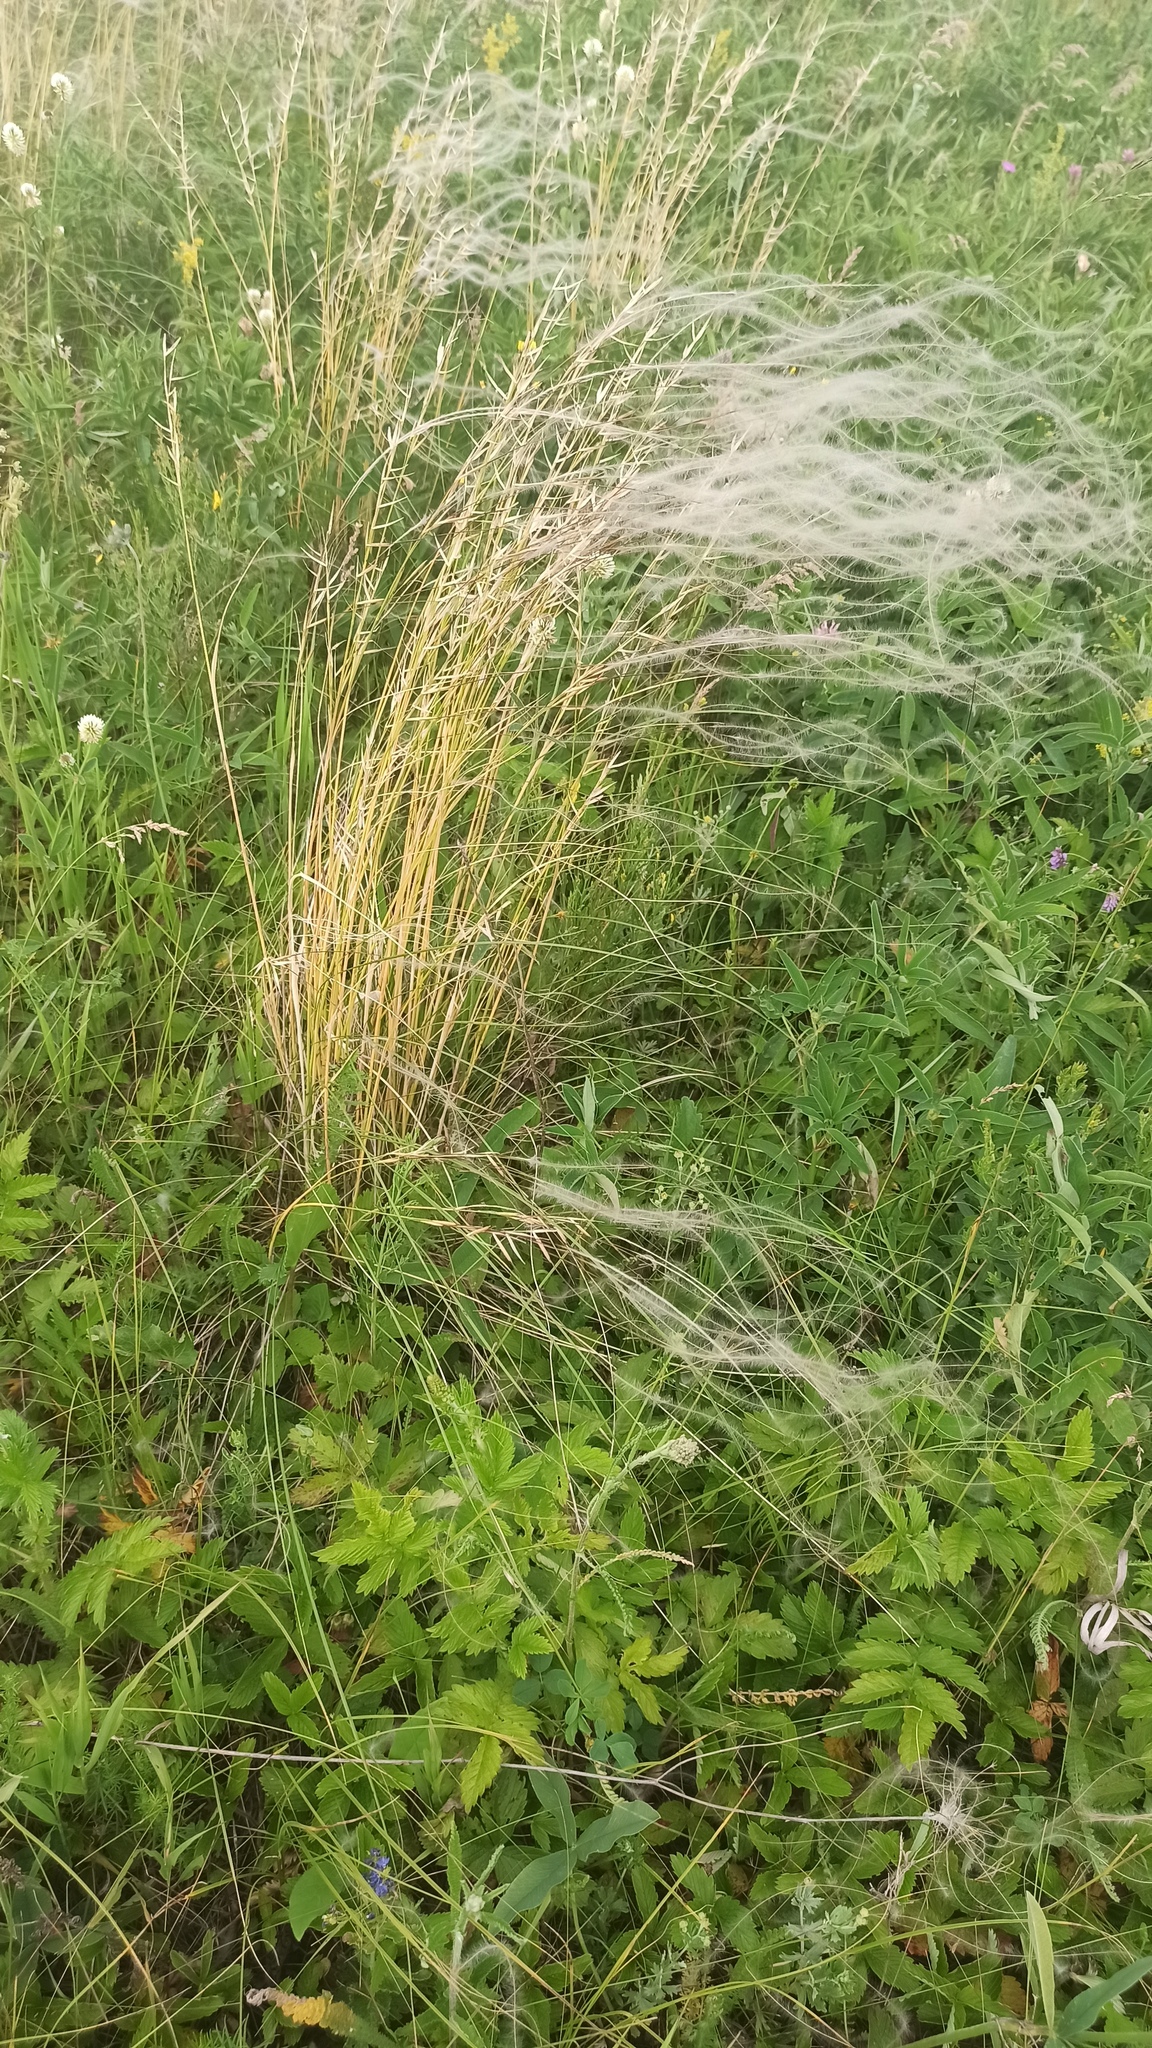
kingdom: Plantae
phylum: Tracheophyta
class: Liliopsida
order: Poales
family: Poaceae
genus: Stipa
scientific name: Stipa pennata
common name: European feather grass
